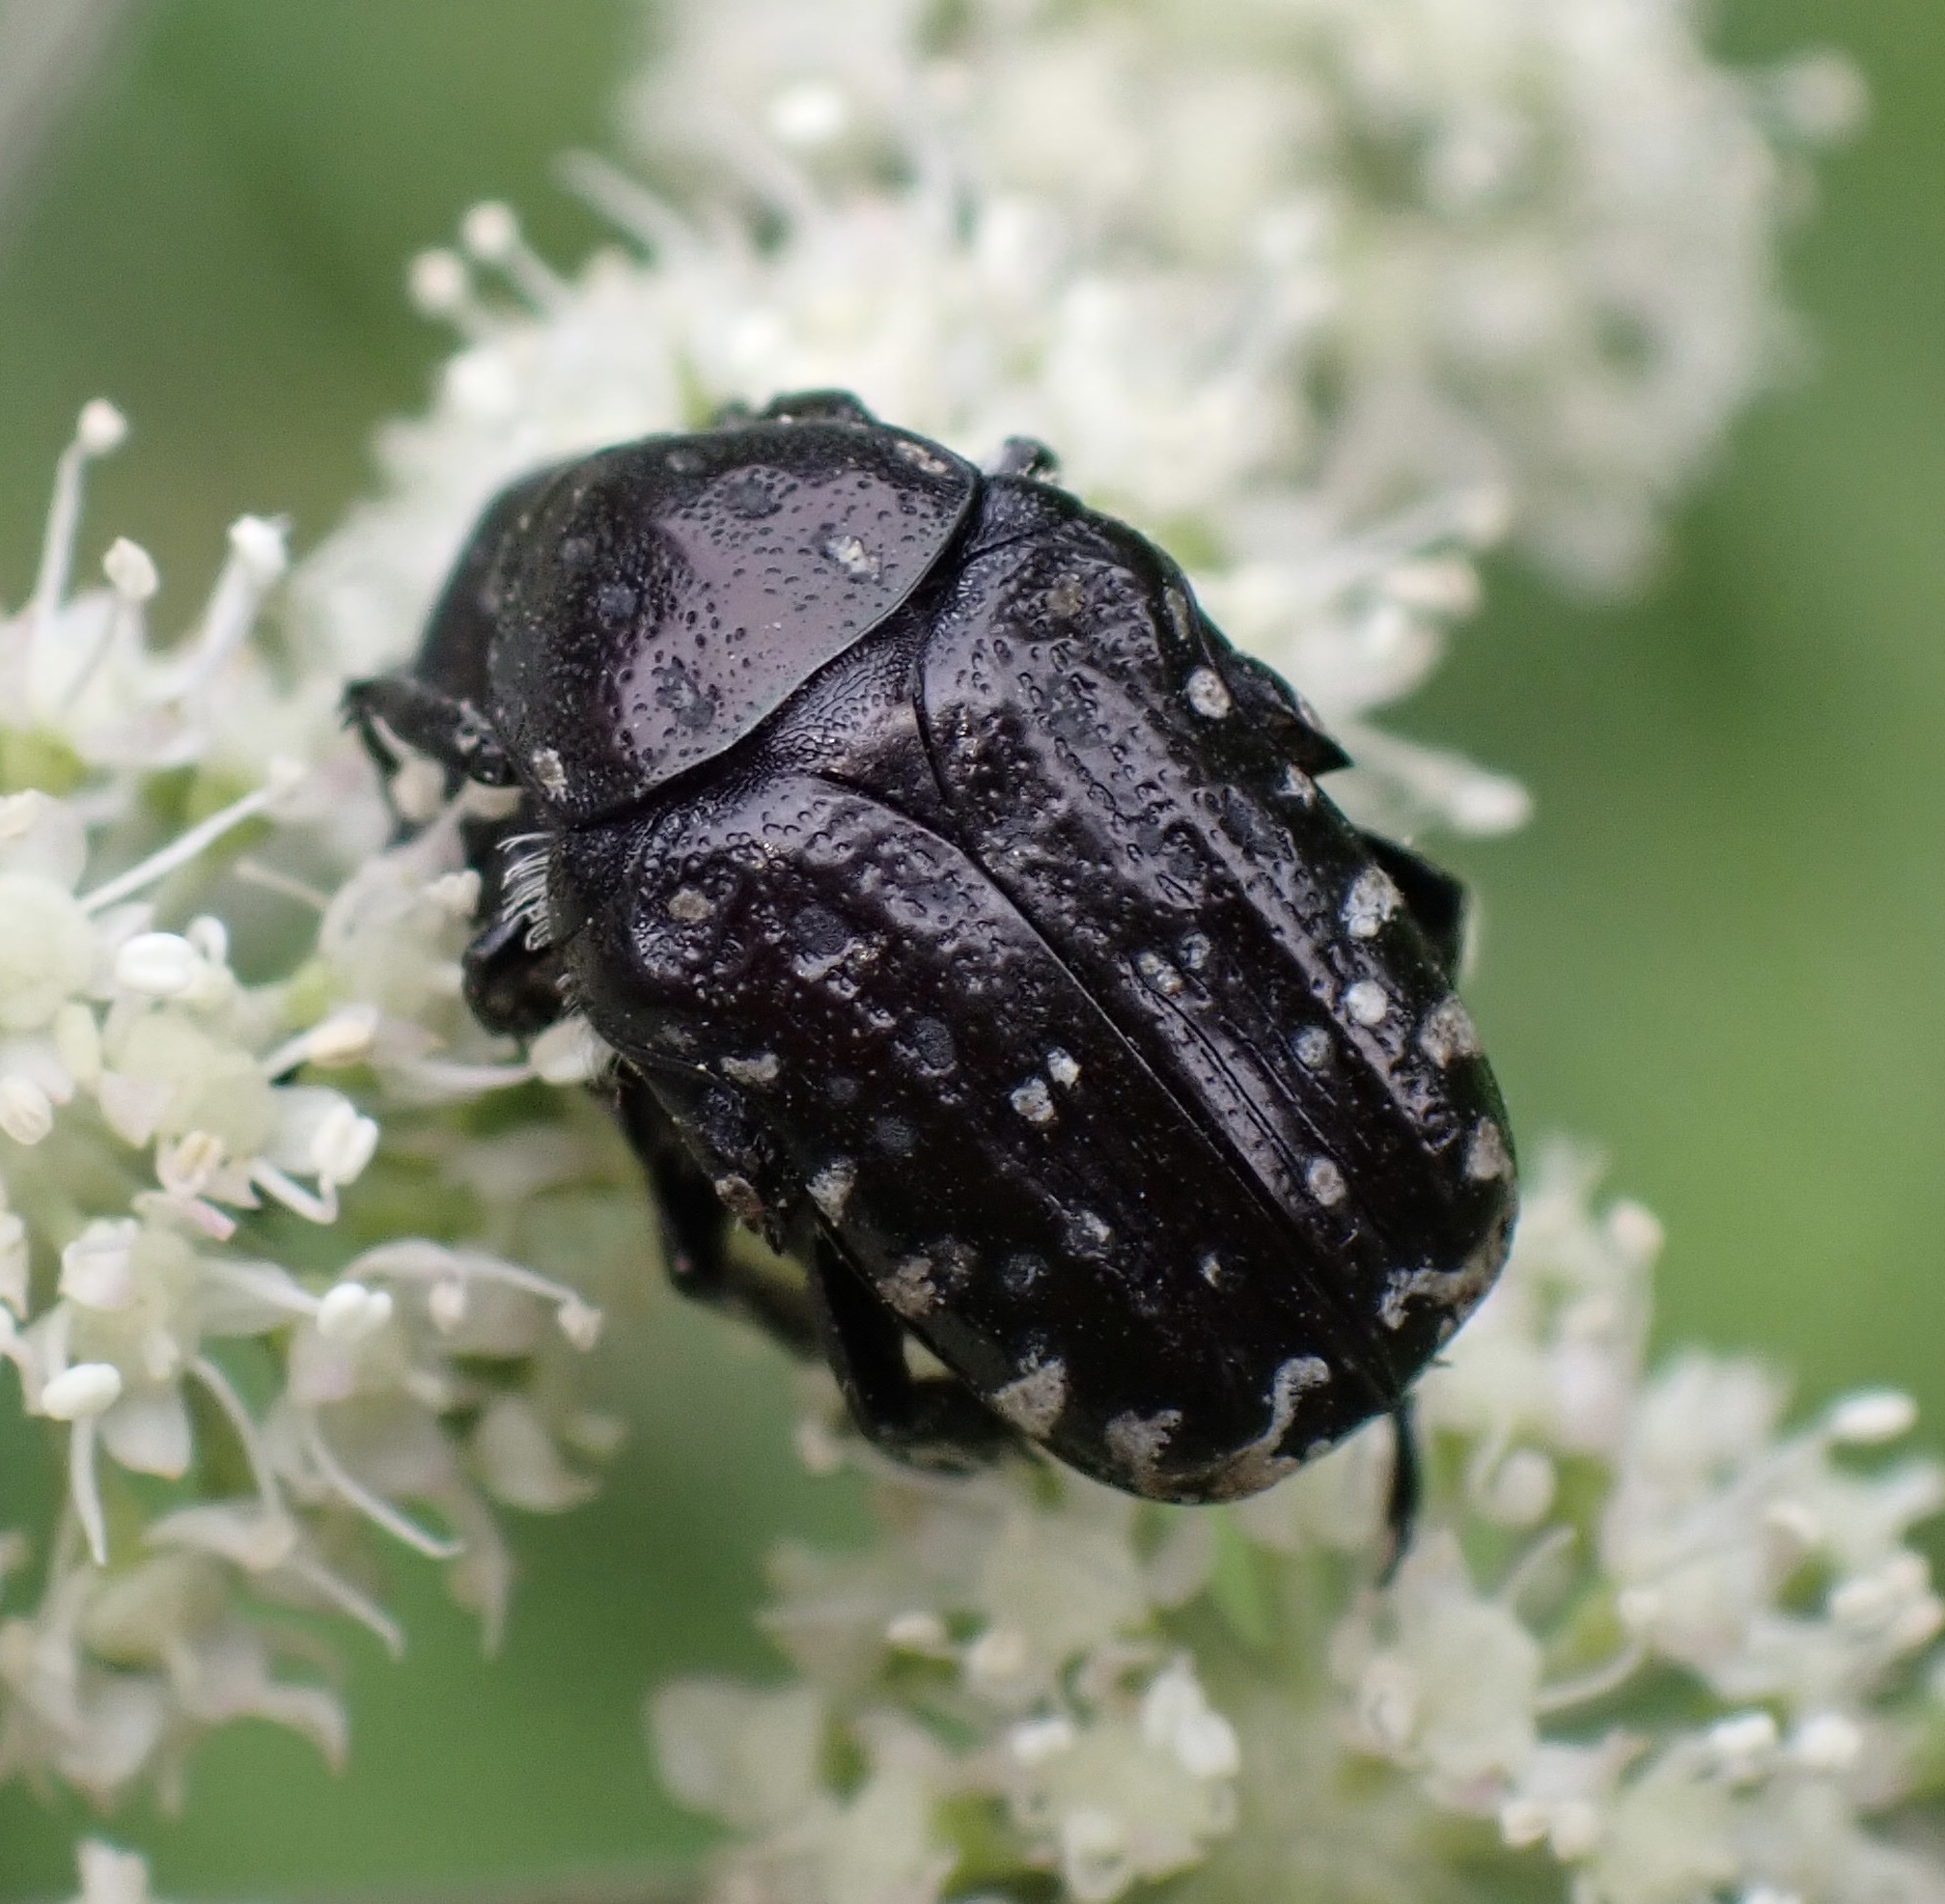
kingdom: Animalia
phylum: Arthropoda
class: Insecta
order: Coleoptera
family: Scarabaeidae
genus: Oxythyrea
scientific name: Oxythyrea funesta
